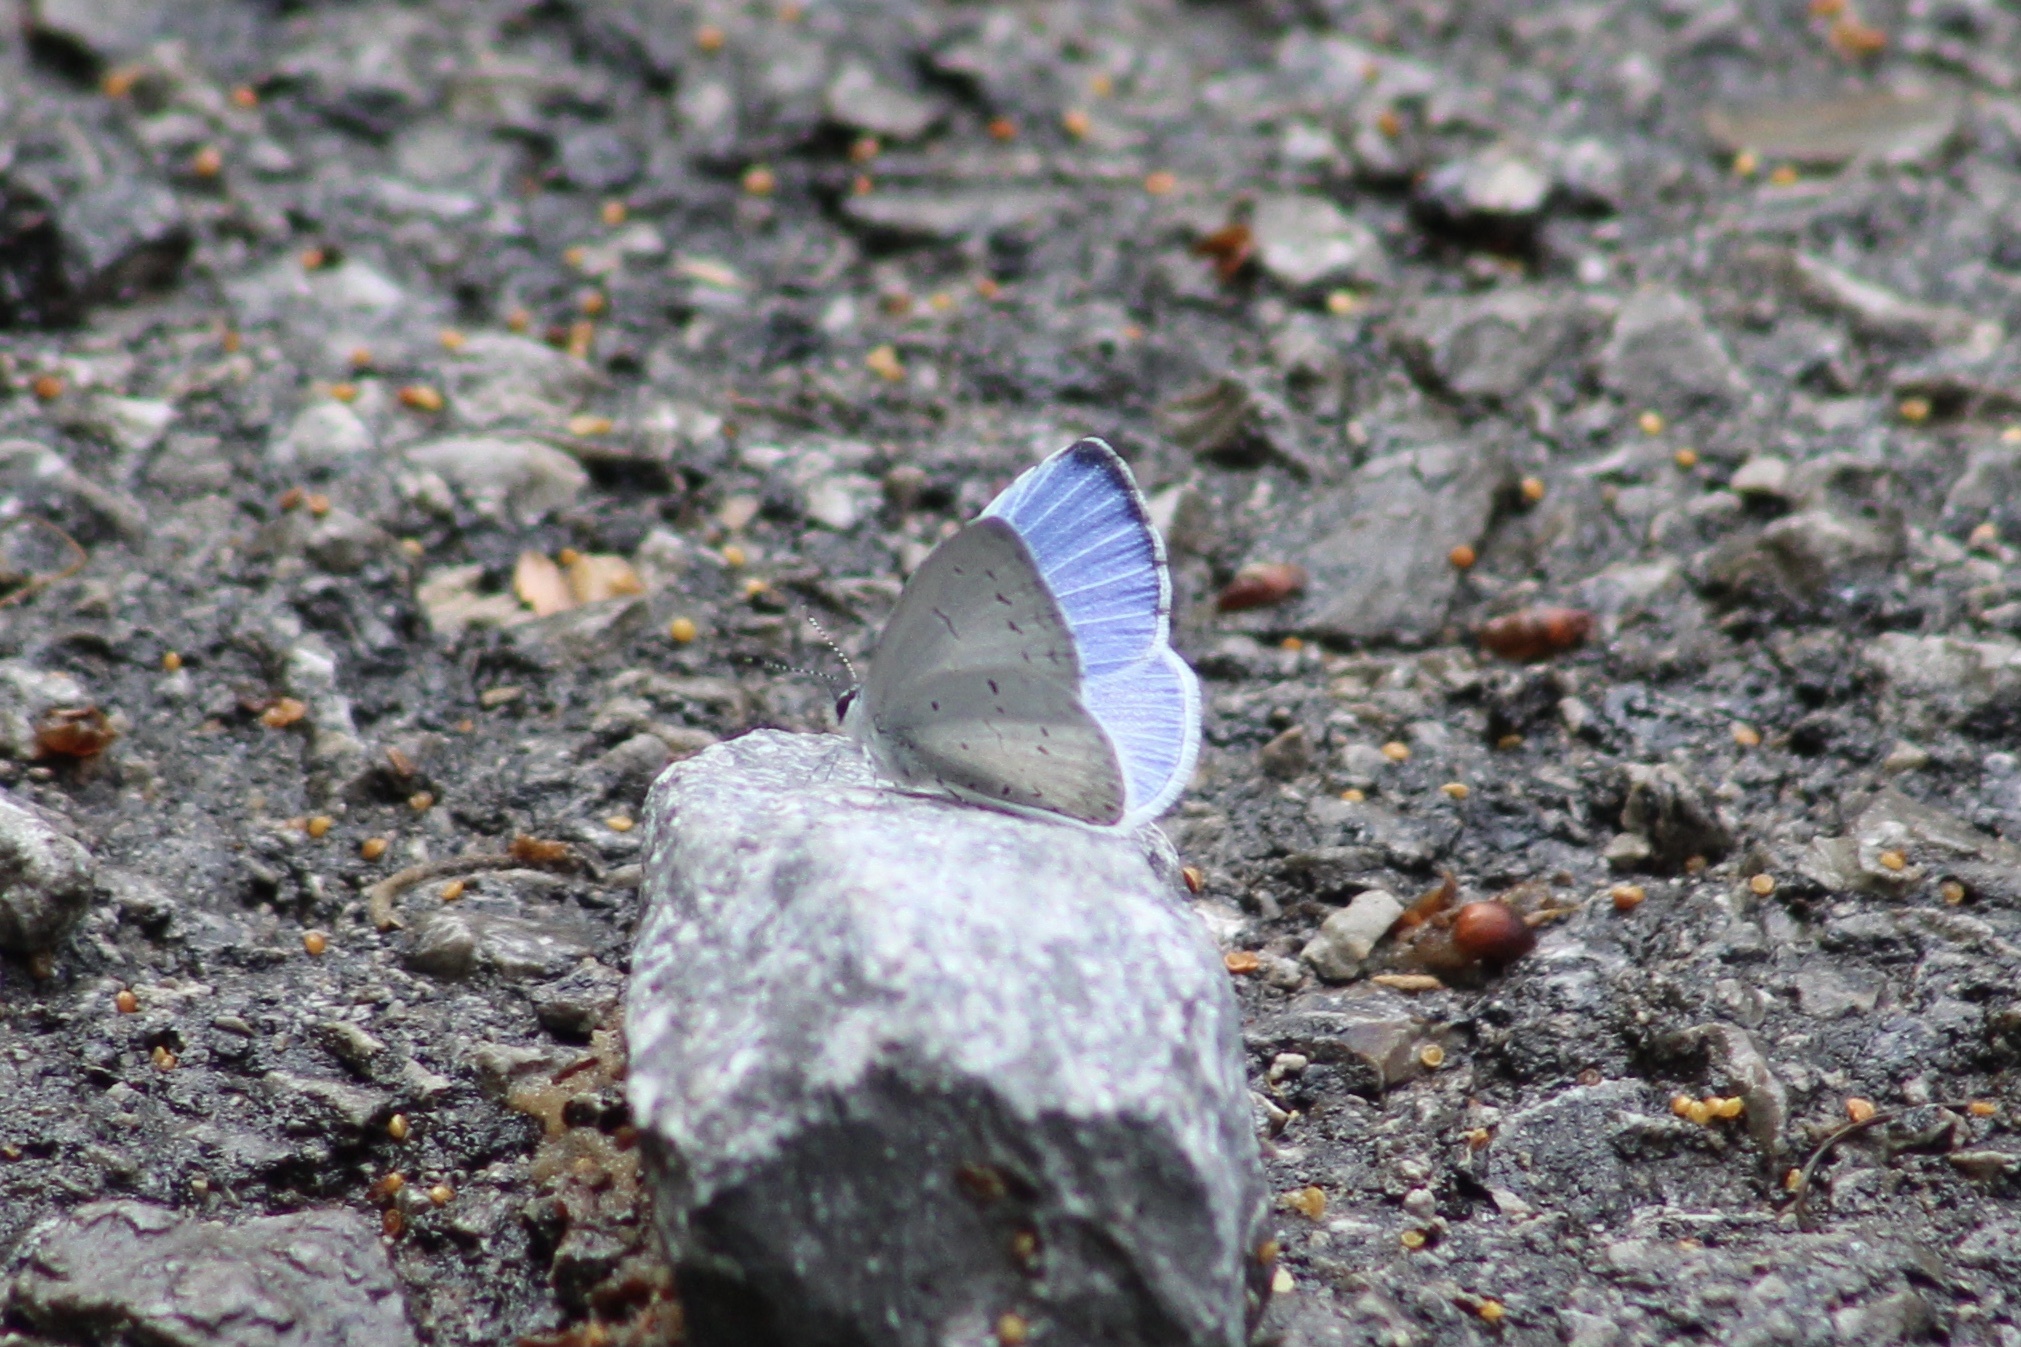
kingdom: Animalia
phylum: Arthropoda
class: Insecta
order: Lepidoptera
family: Lycaenidae
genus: Cyaniris
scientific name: Cyaniris neglecta
